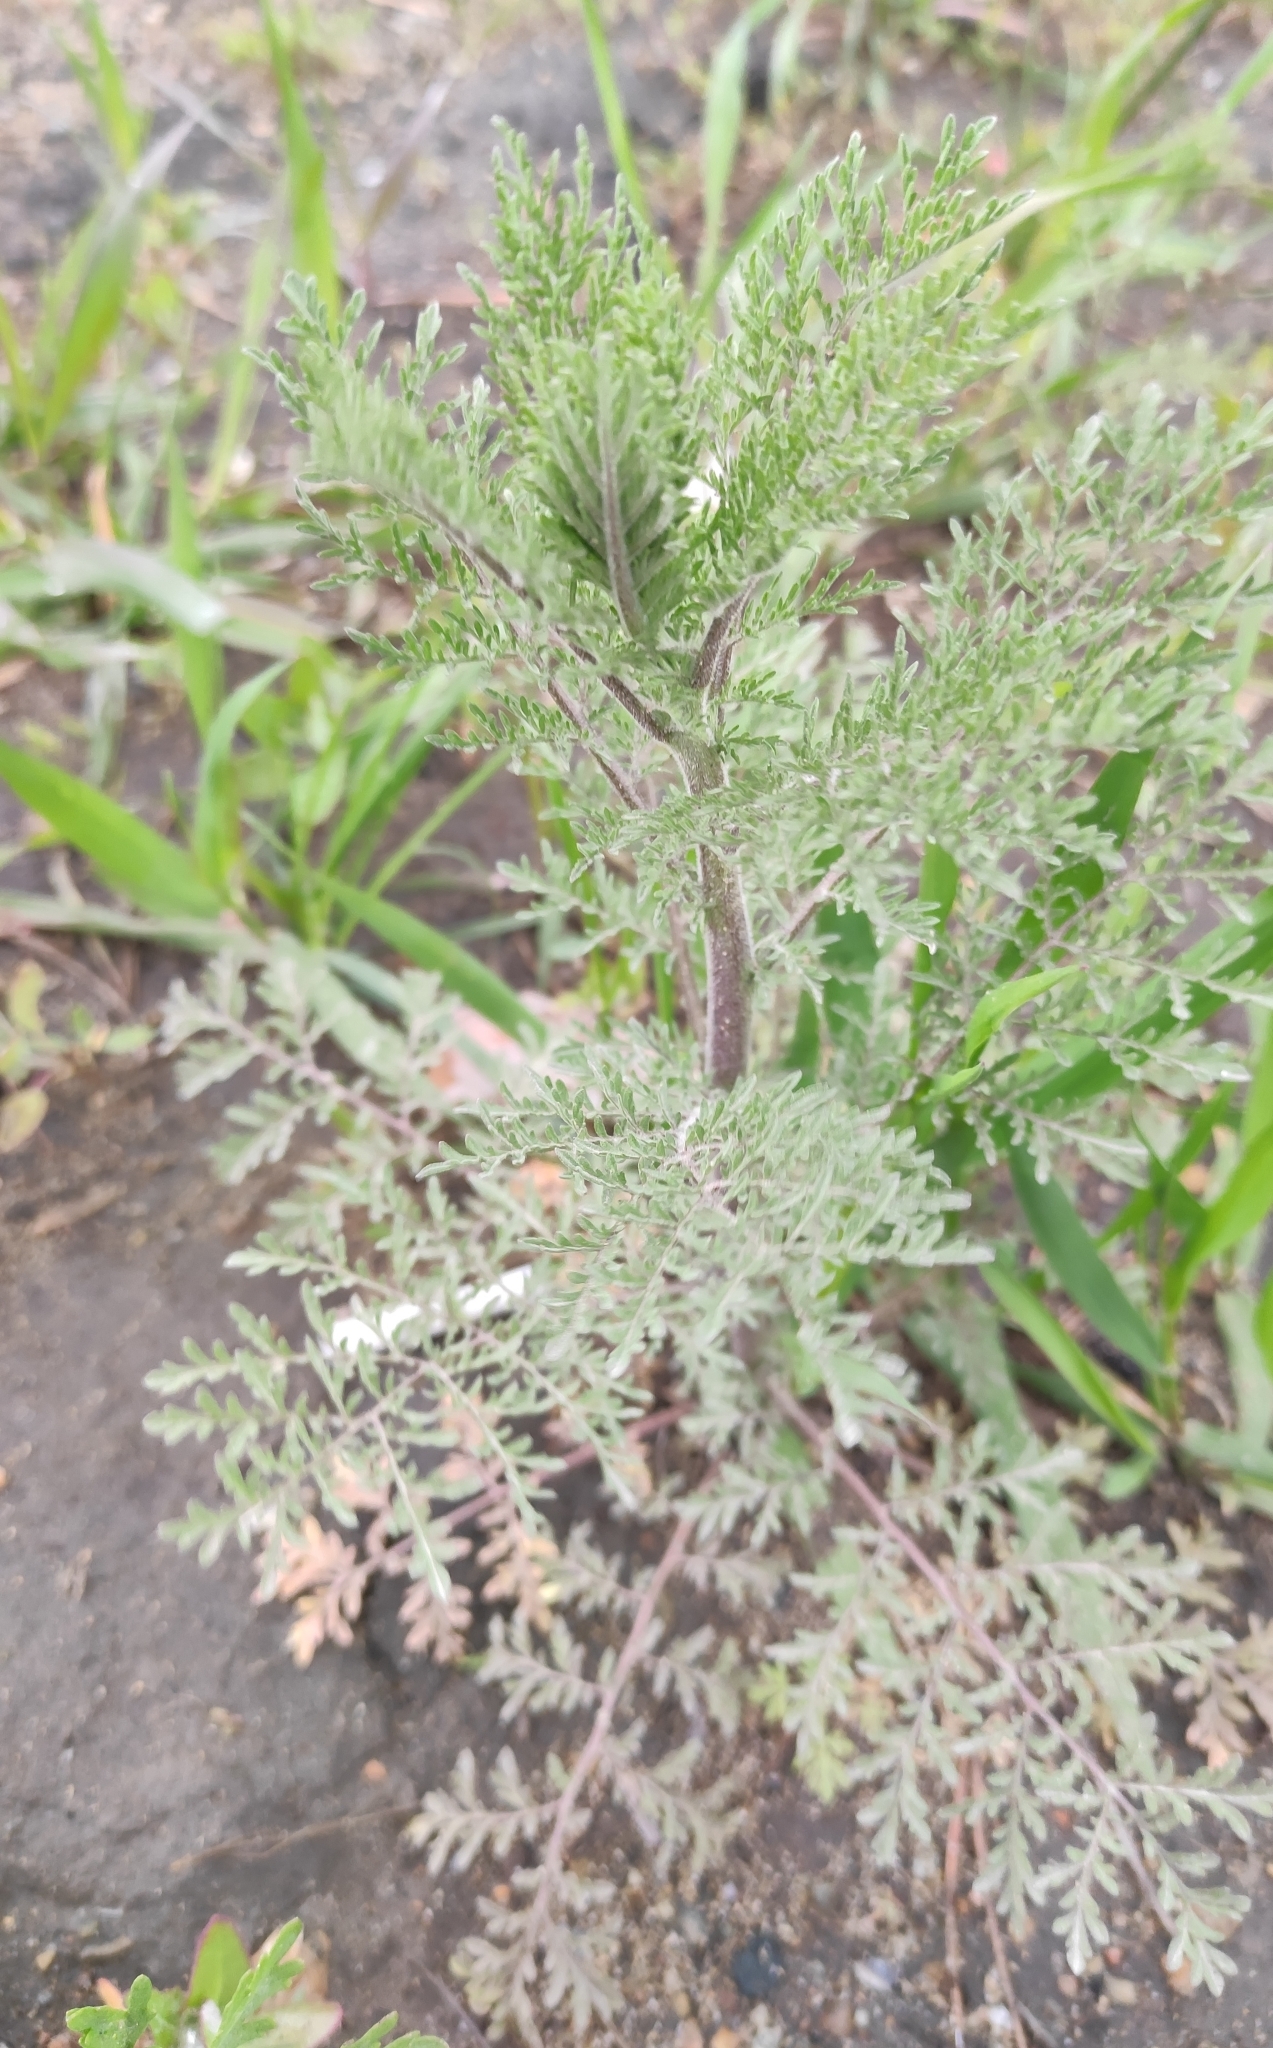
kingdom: Plantae
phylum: Tracheophyta
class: Magnoliopsida
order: Brassicales
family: Brassicaceae
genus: Descurainia
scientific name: Descurainia sophia
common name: Flixweed
